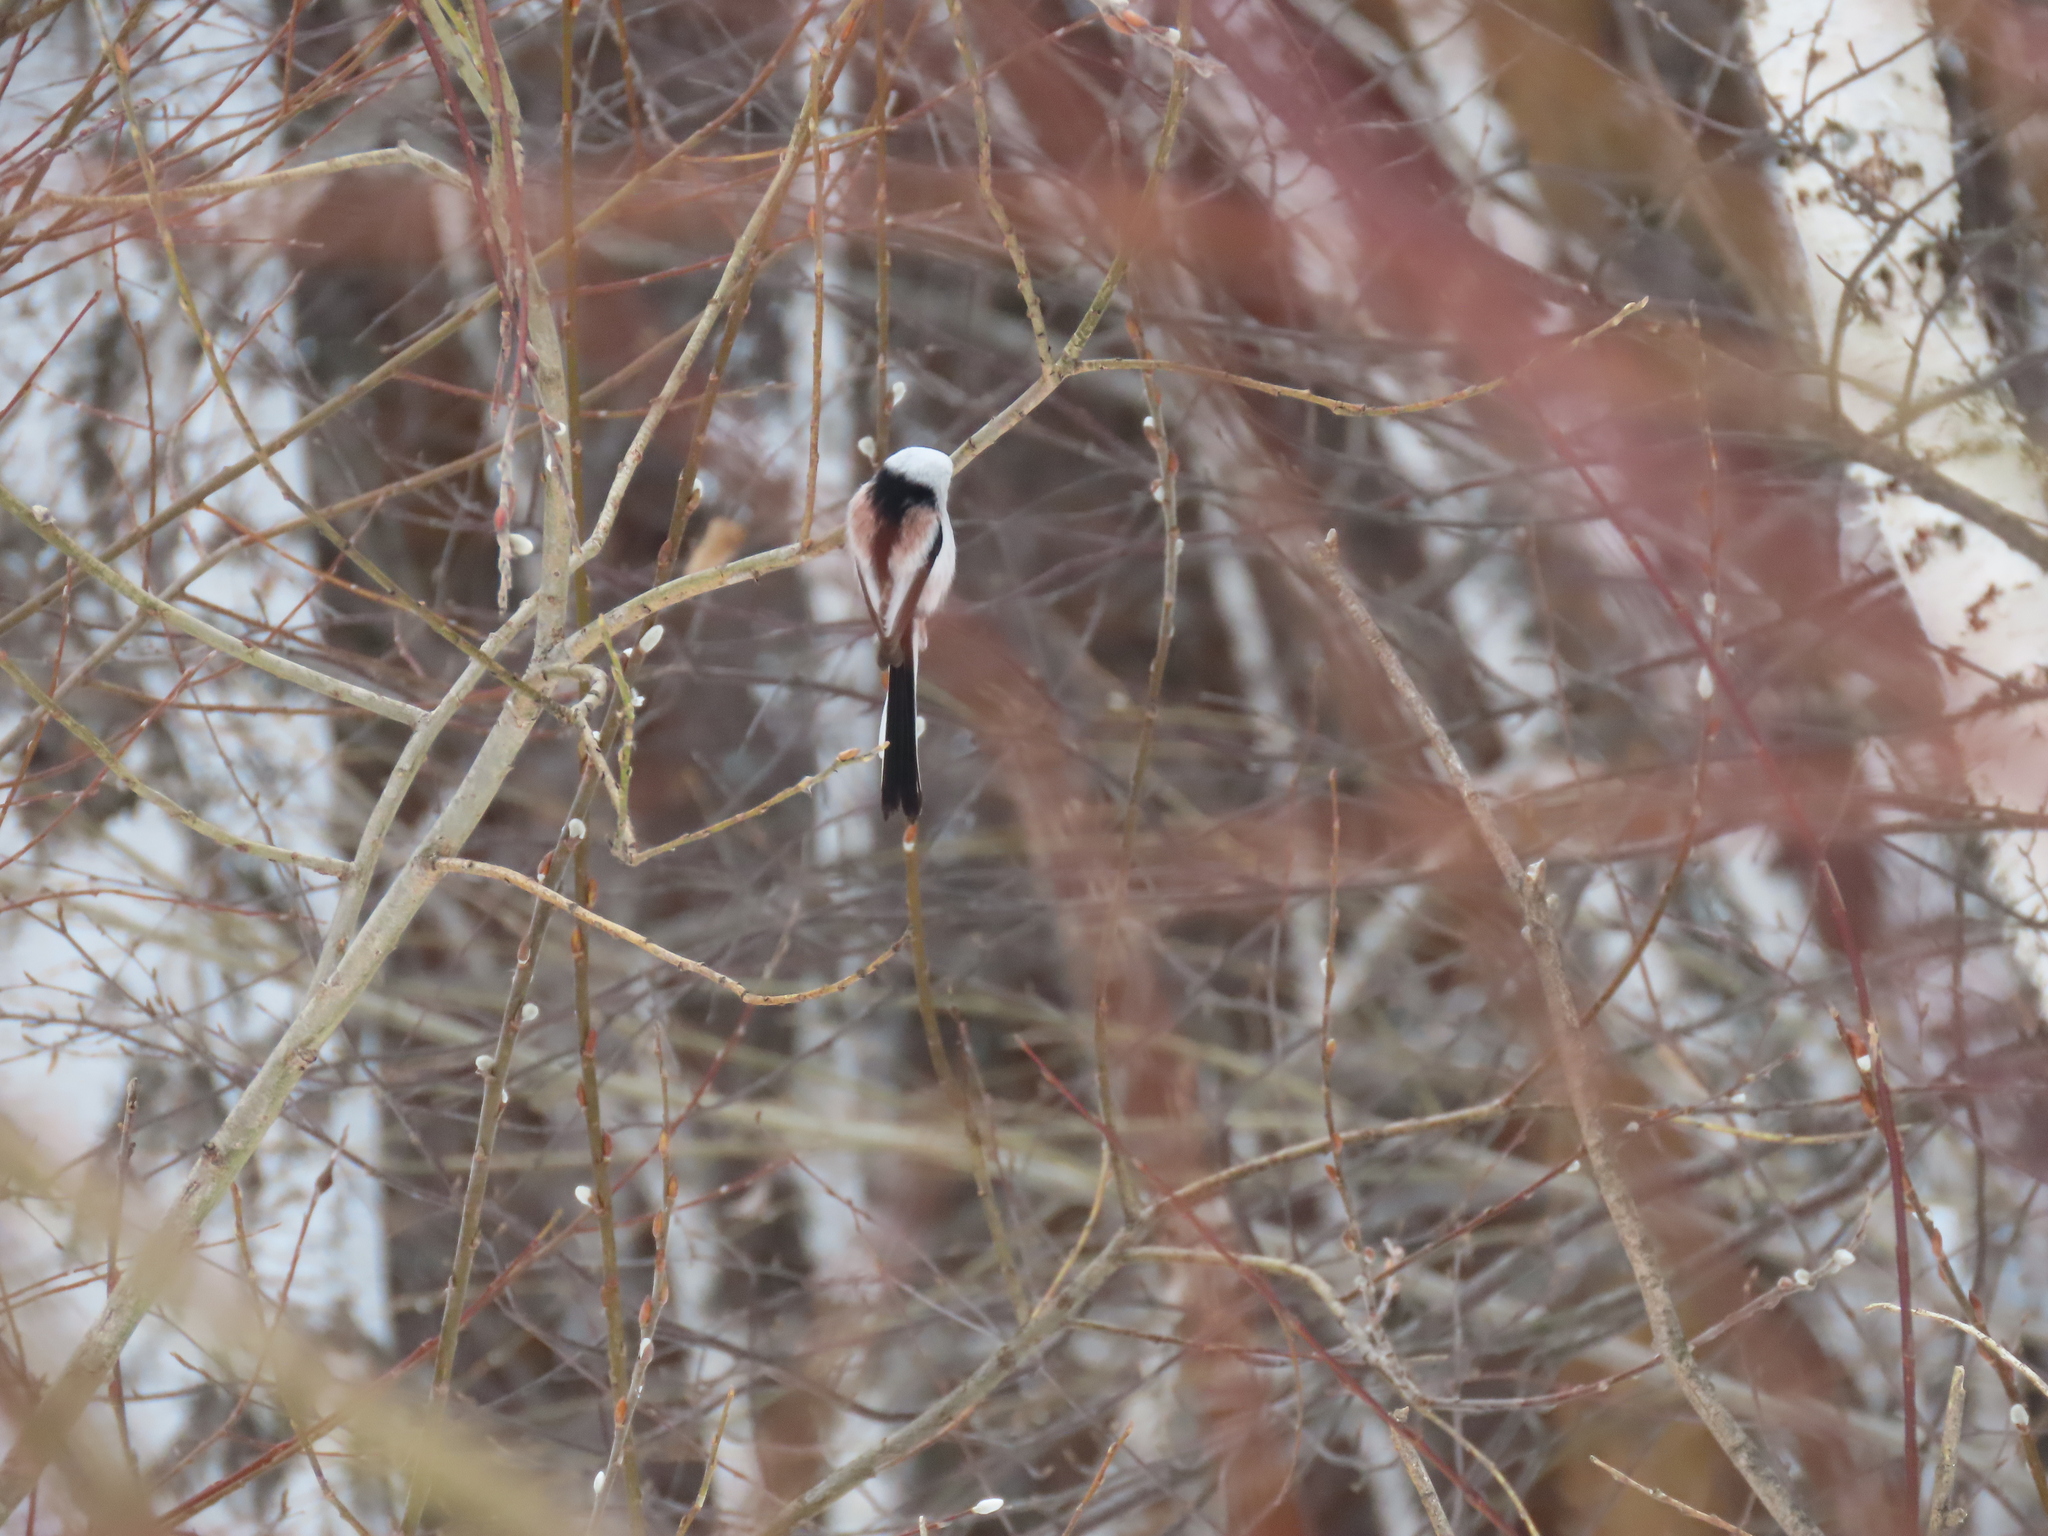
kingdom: Animalia
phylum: Chordata
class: Aves
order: Passeriformes
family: Aegithalidae
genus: Aegithalos
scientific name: Aegithalos caudatus
